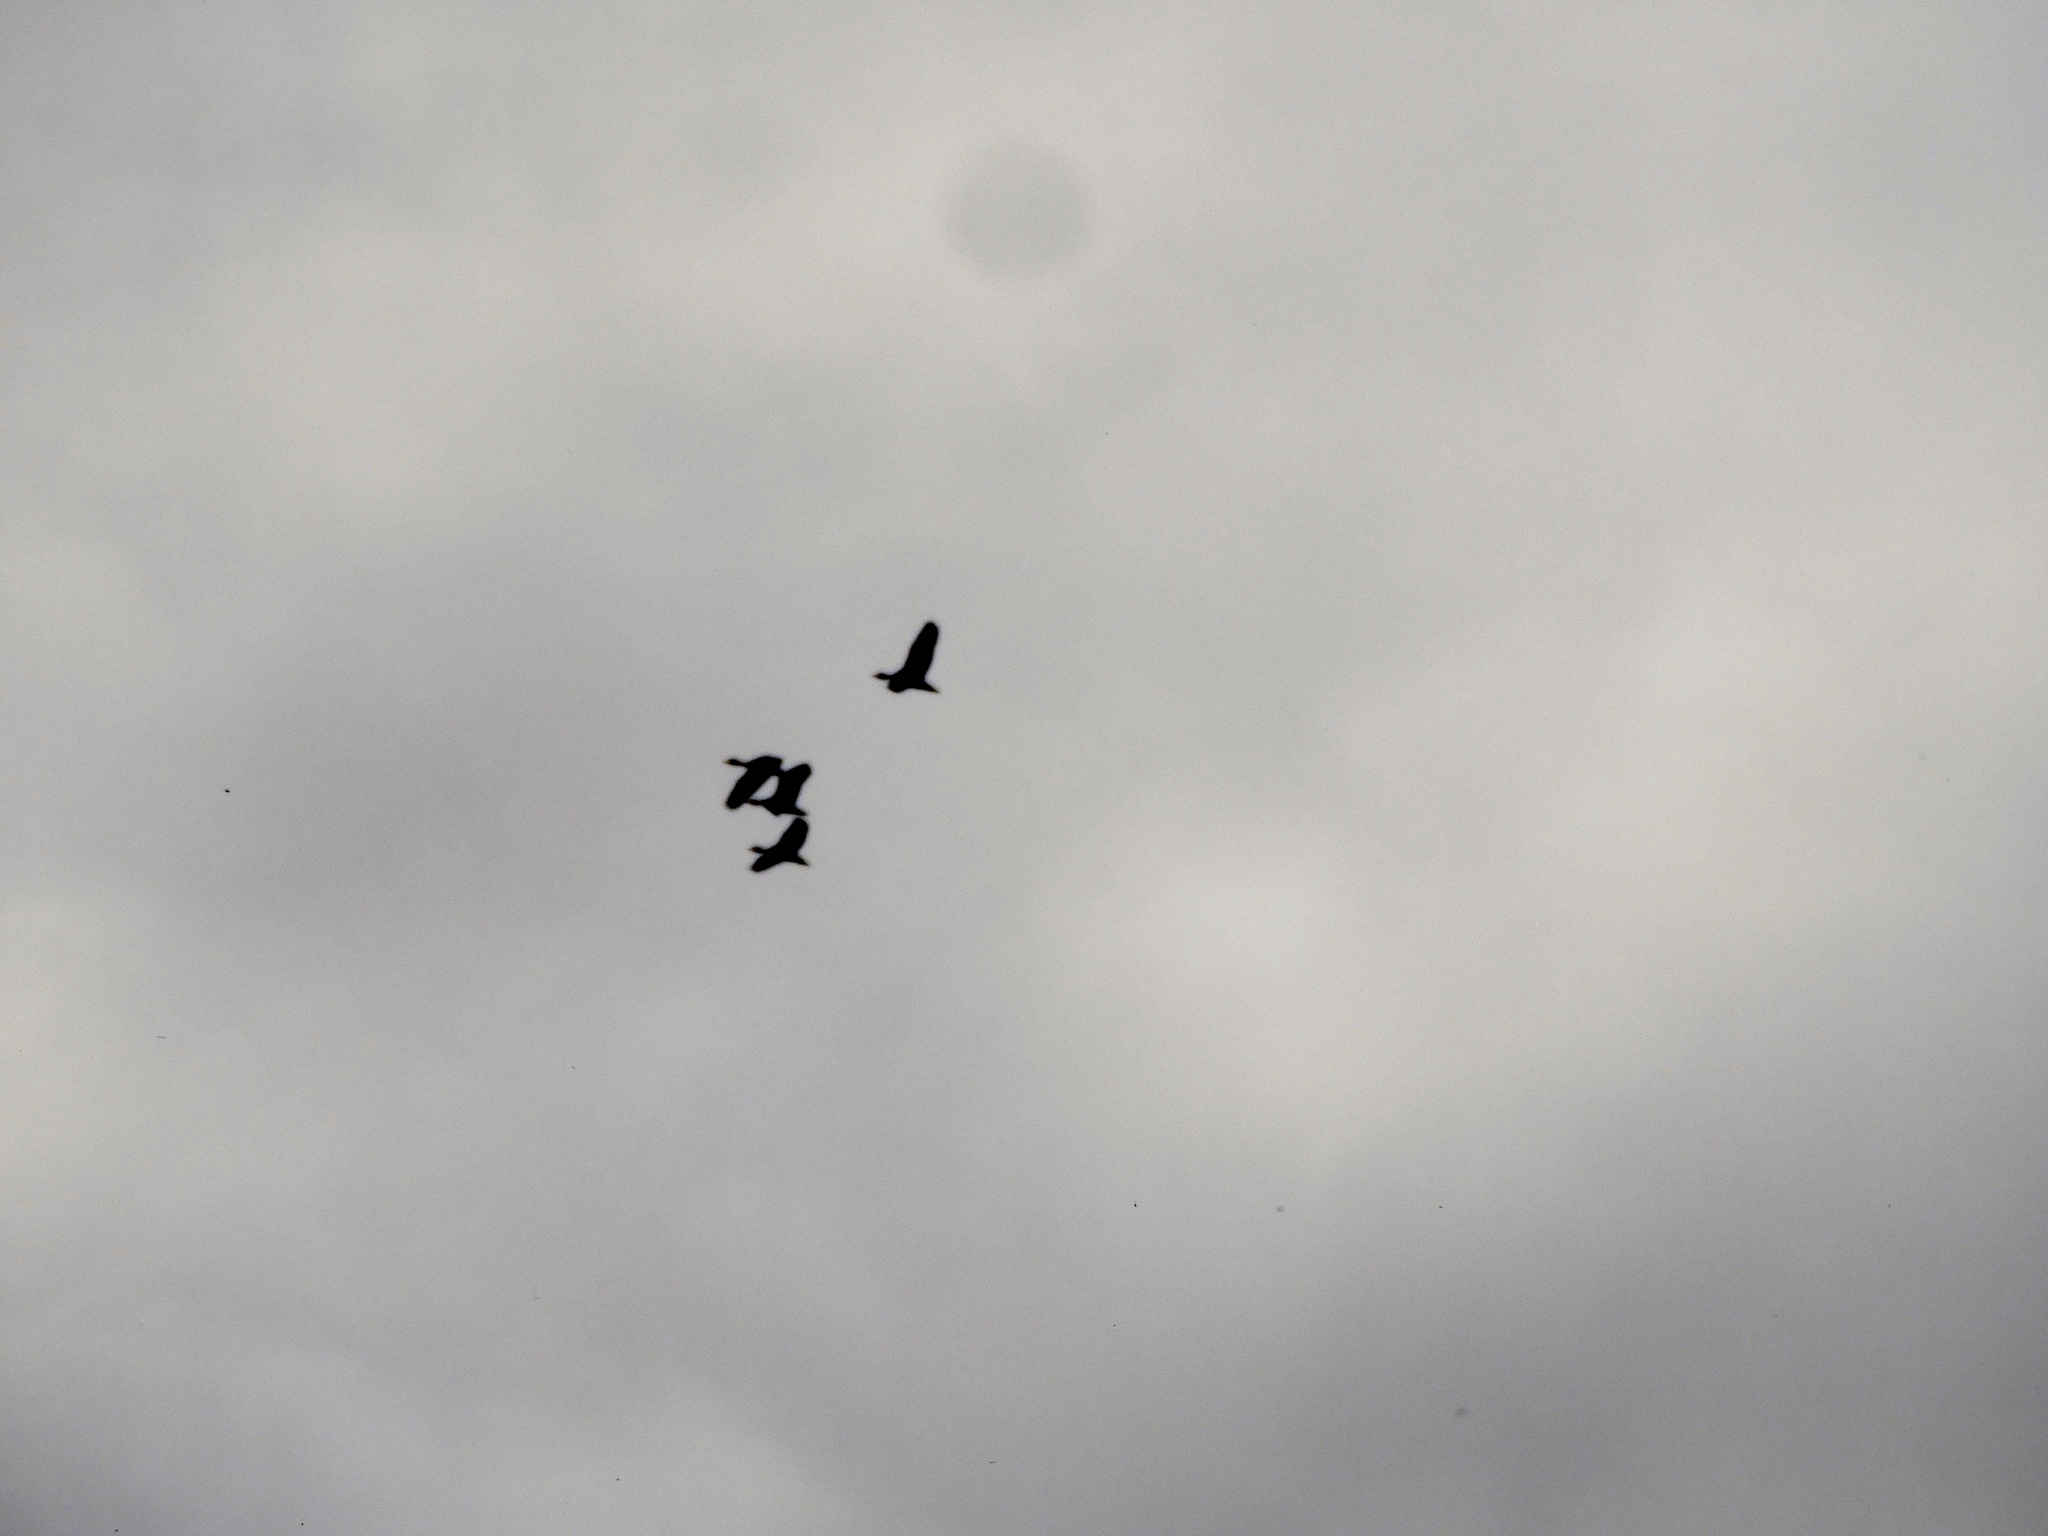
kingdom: Animalia
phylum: Chordata
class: Aves
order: Anseriformes
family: Anatidae
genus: Dendrocygna
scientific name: Dendrocygna autumnalis
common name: Black-bellied whistling duck
